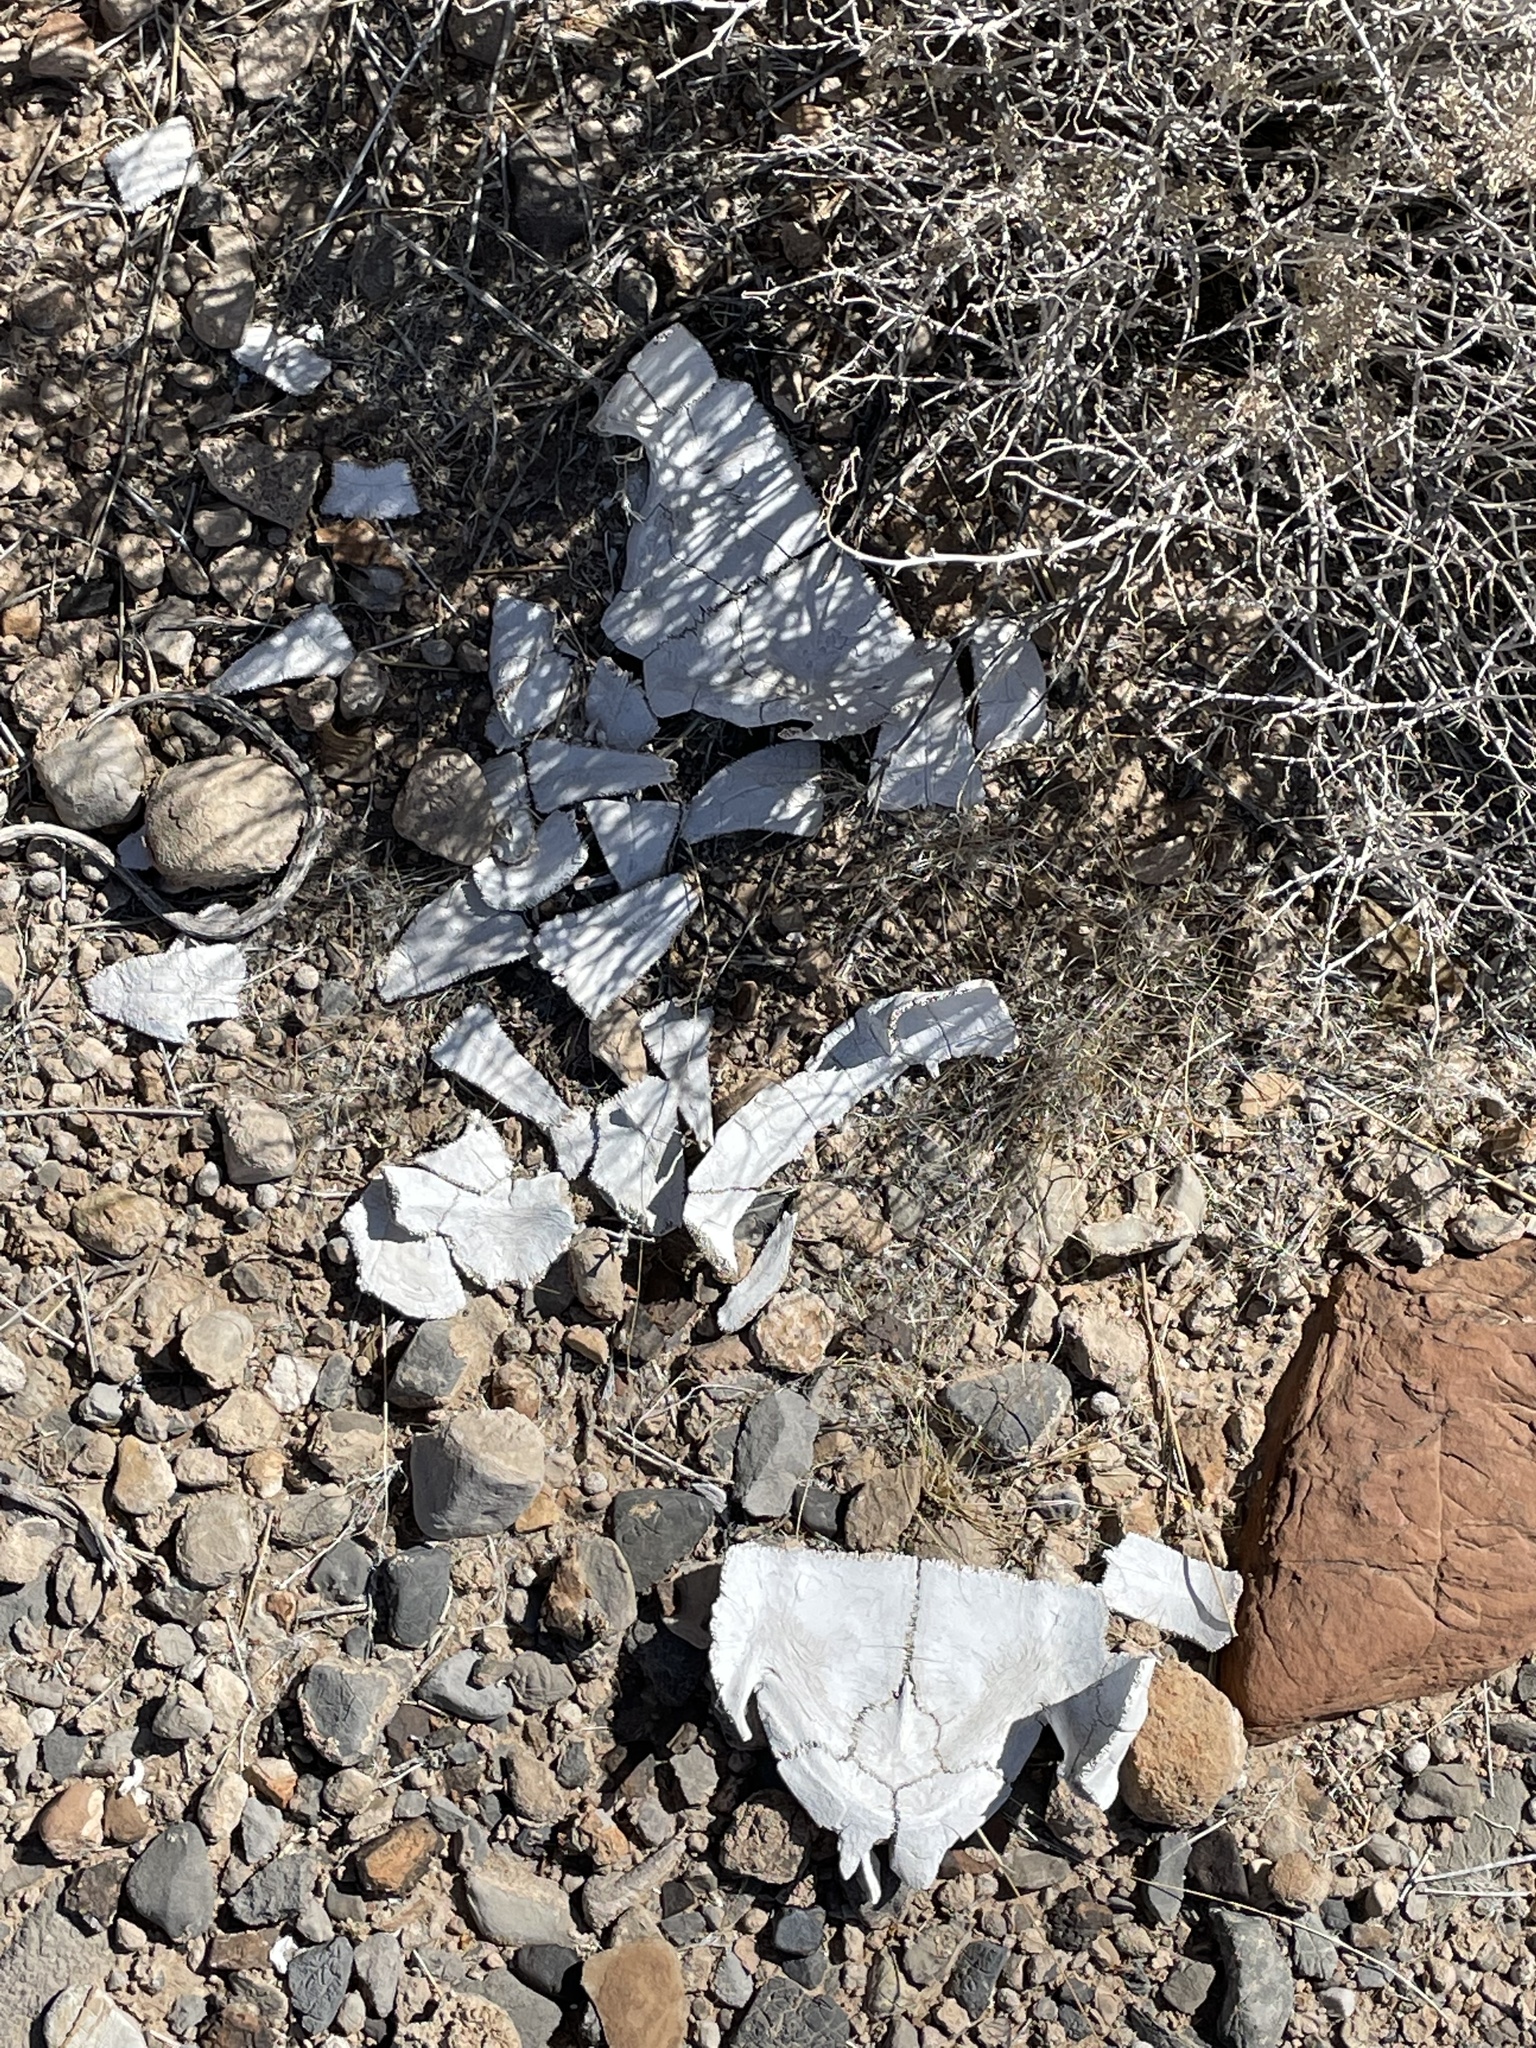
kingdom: Animalia
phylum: Chordata
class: Testudines
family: Testudinidae
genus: Gopherus
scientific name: Gopherus agassizii
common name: Mojave desert tortoise
